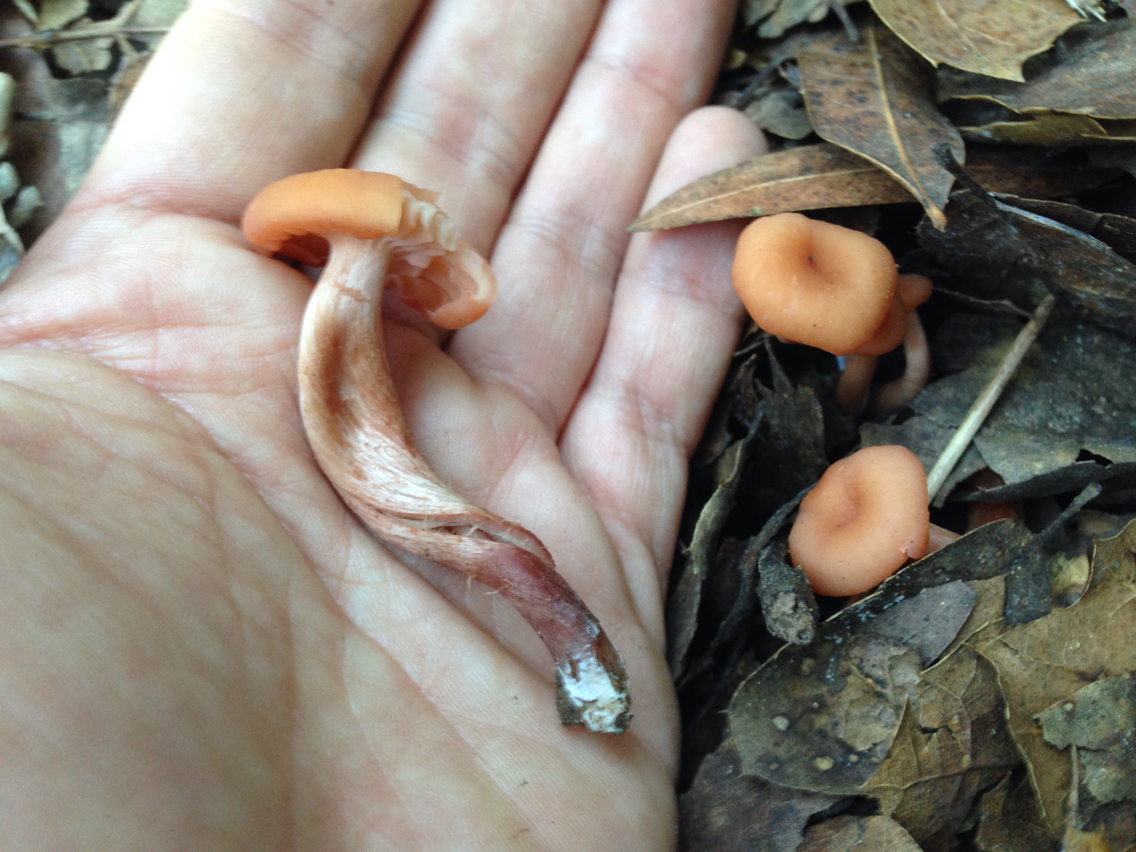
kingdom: Fungi
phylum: Basidiomycota
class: Agaricomycetes
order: Agaricales
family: Hydnangiaceae
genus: Laccaria
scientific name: Laccaria fraterna
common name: Gumtree deceiver
